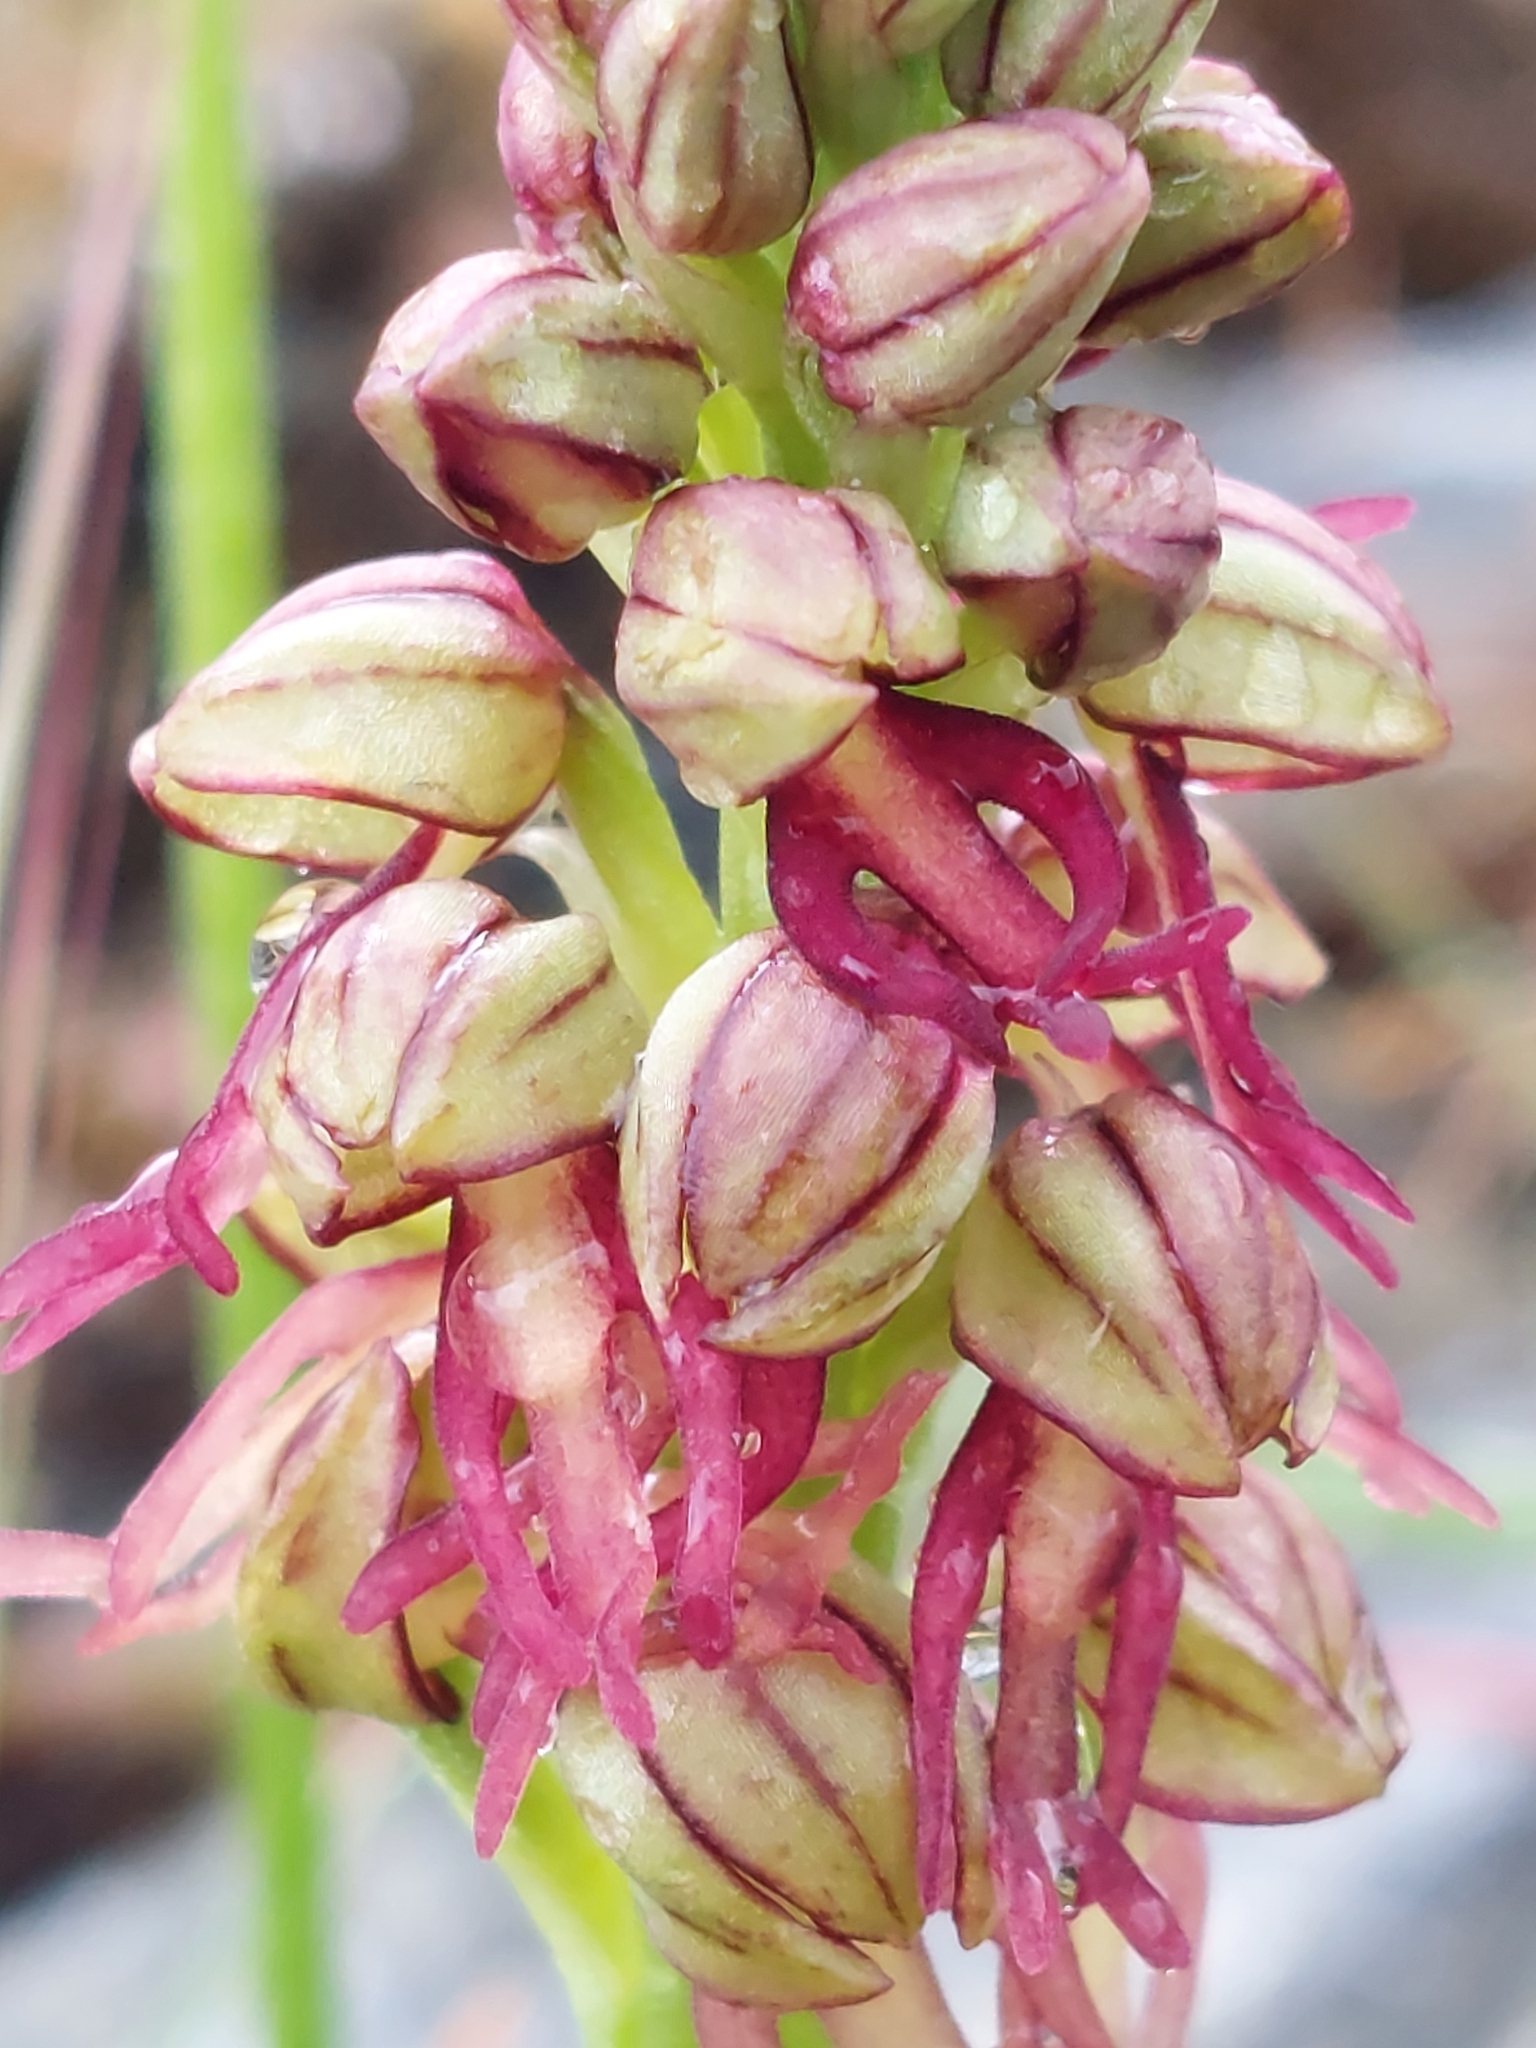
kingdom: Plantae
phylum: Tracheophyta
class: Liliopsida
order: Asparagales
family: Orchidaceae
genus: Orchis
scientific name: Orchis anthropophora
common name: Man orchid
